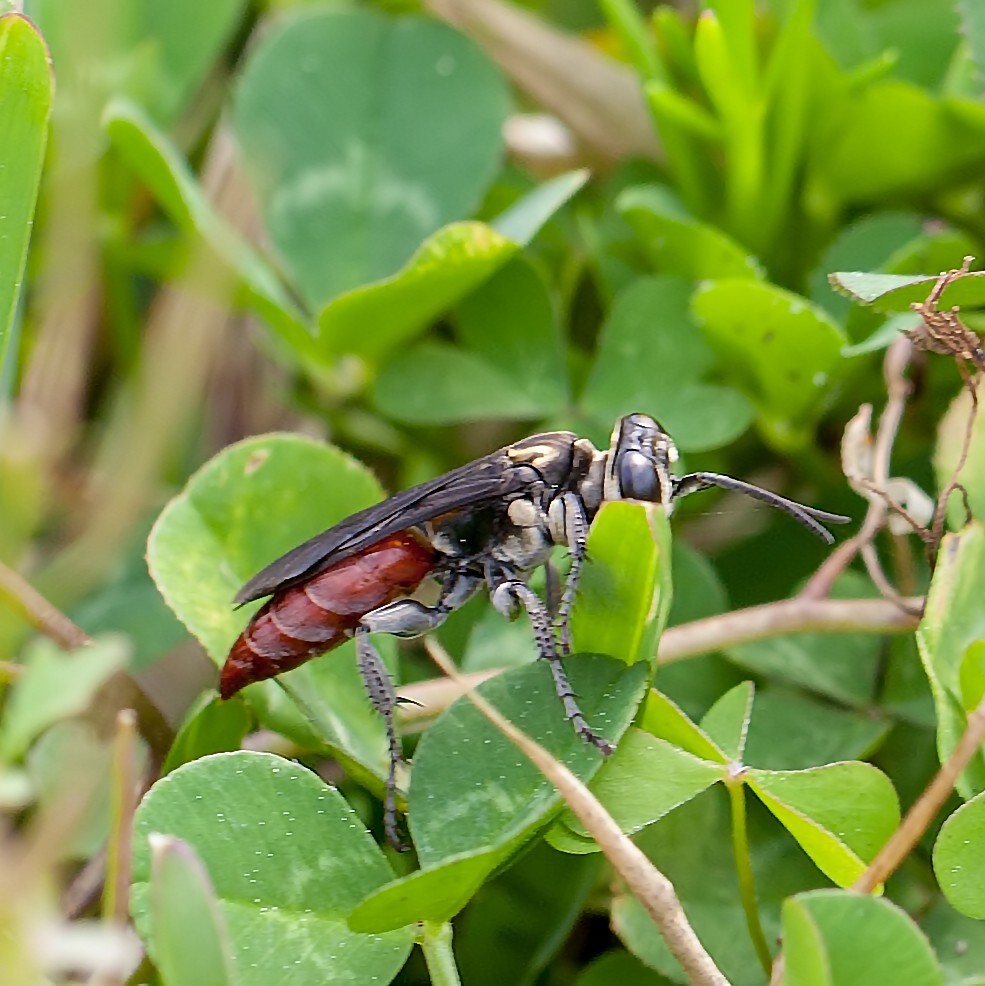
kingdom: Animalia
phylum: Arthropoda
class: Insecta
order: Hymenoptera
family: Crabronidae
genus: Larra
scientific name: Larra bicolor
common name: Wasp
